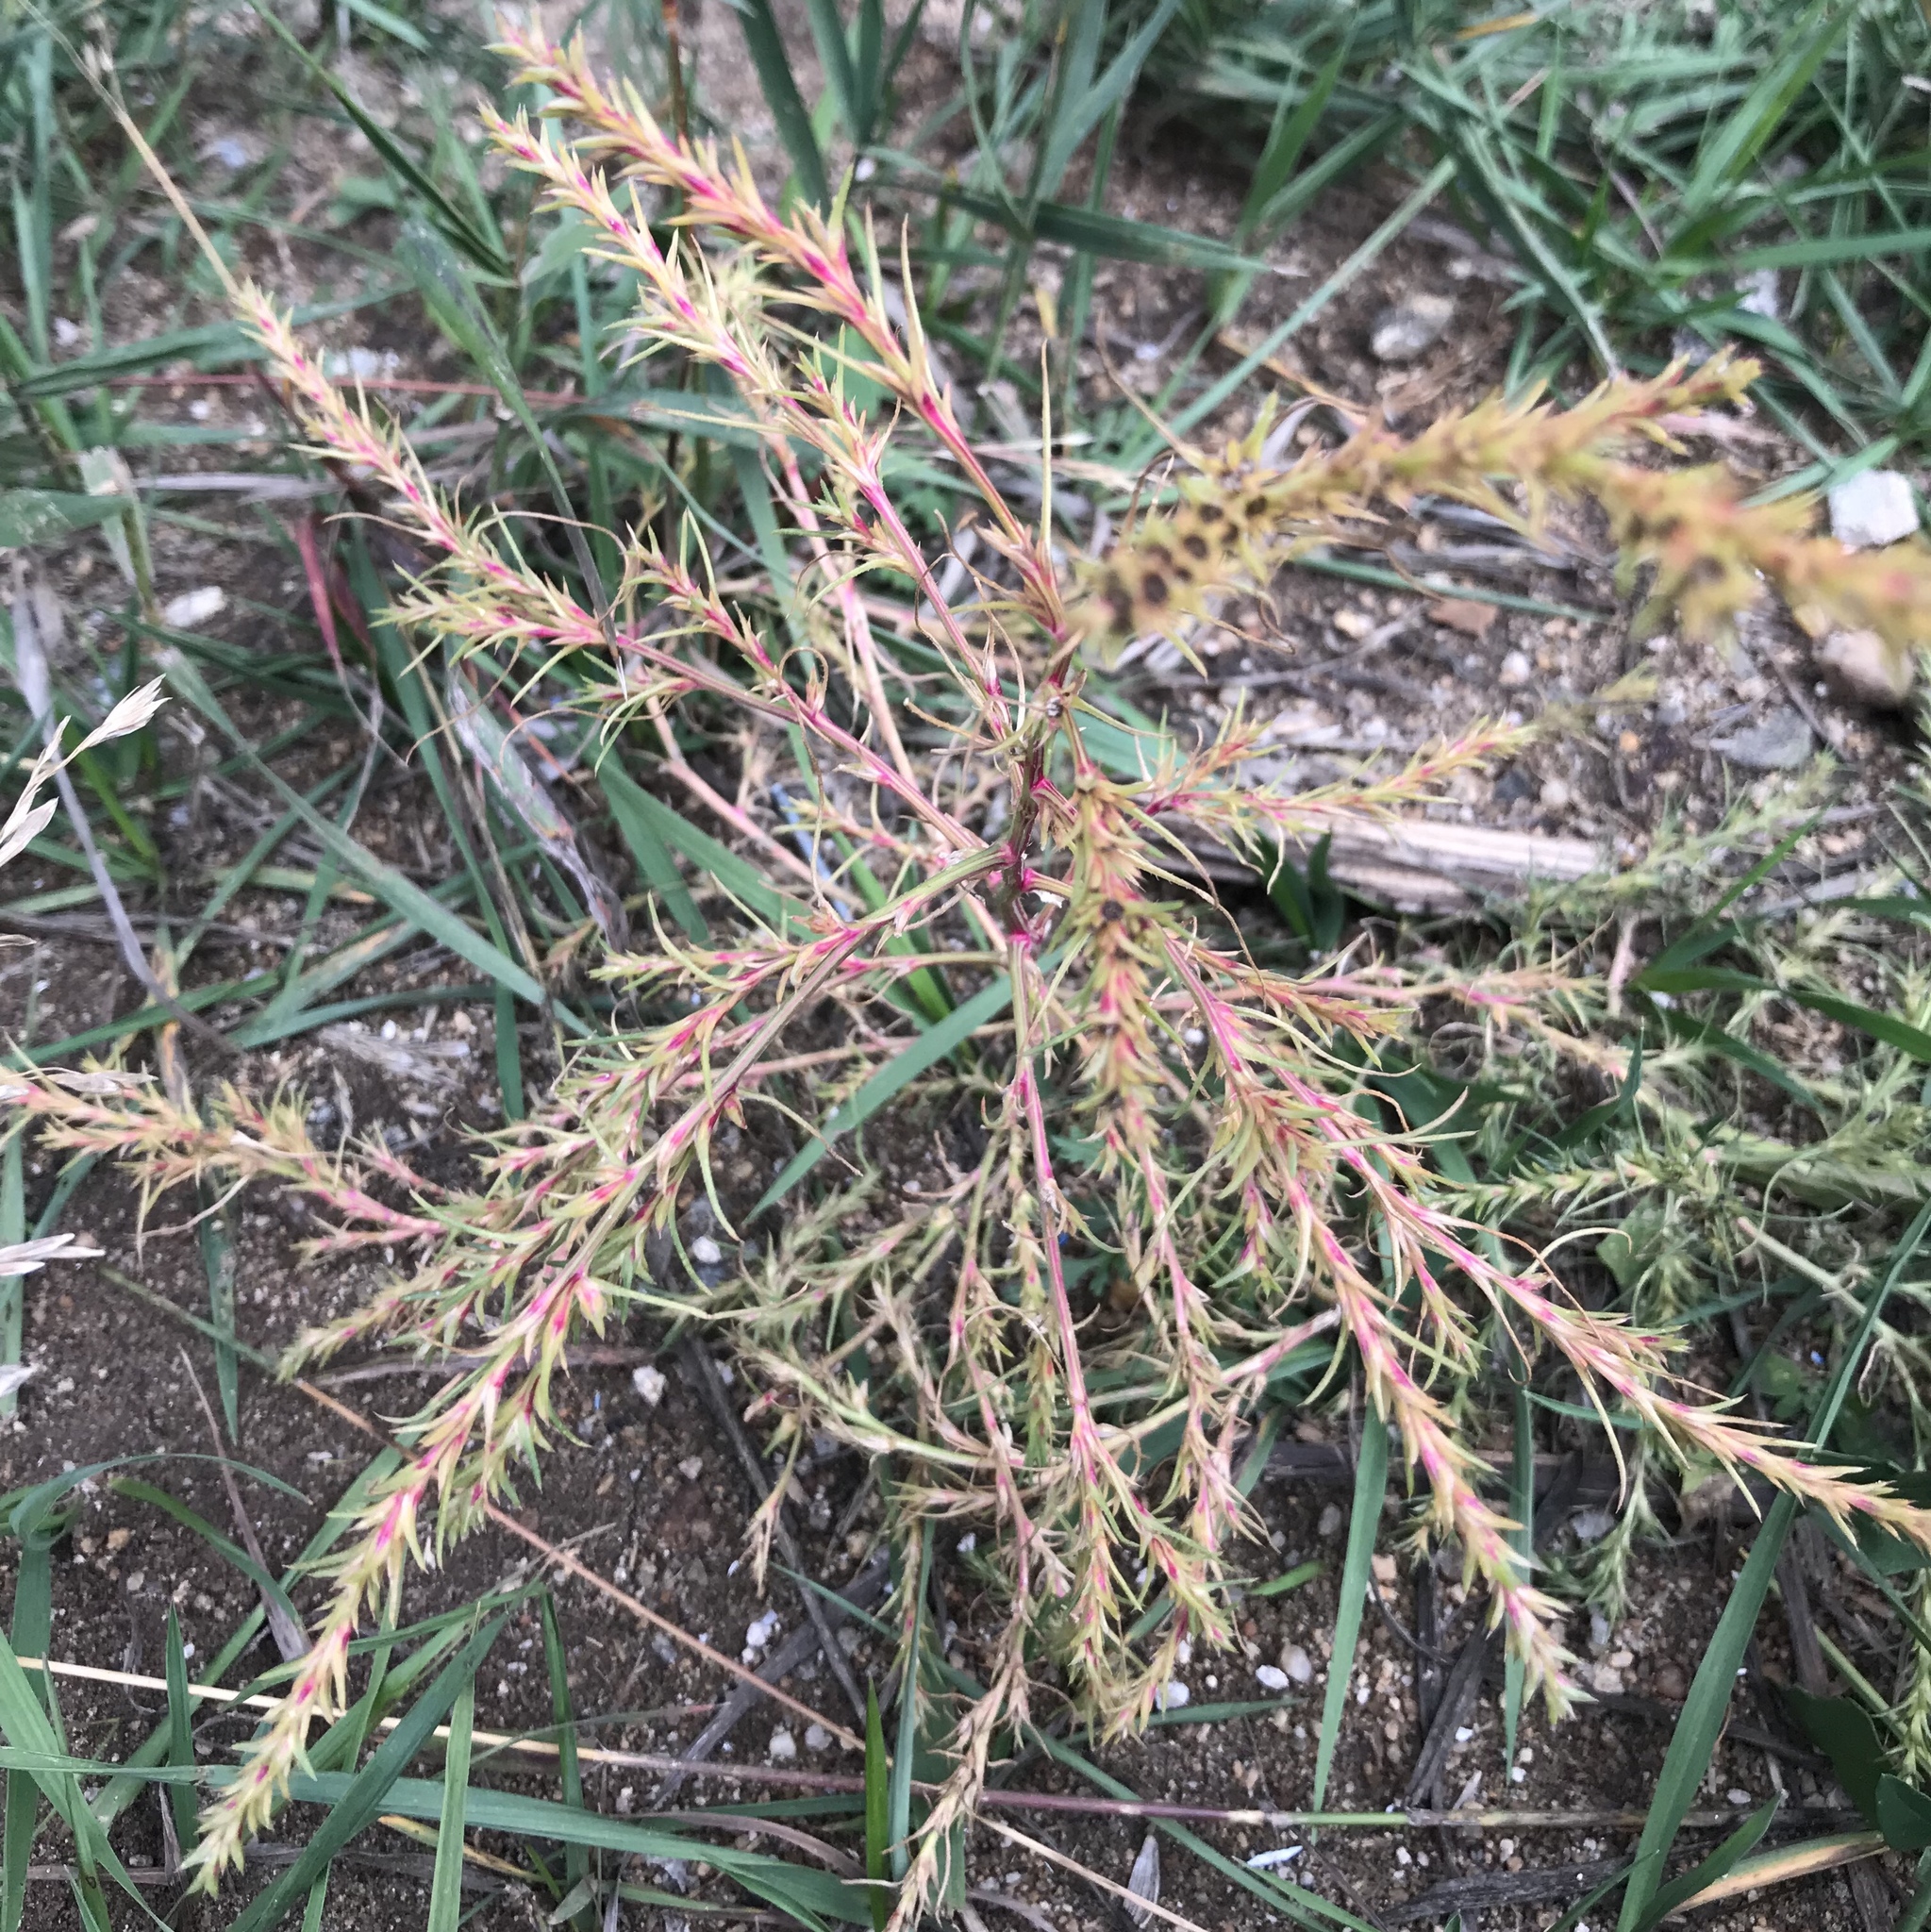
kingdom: Plantae
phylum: Tracheophyta
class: Magnoliopsida
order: Caryophyllales
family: Amaranthaceae
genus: Salsola
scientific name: Salsola collina
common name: Tumbleweed
